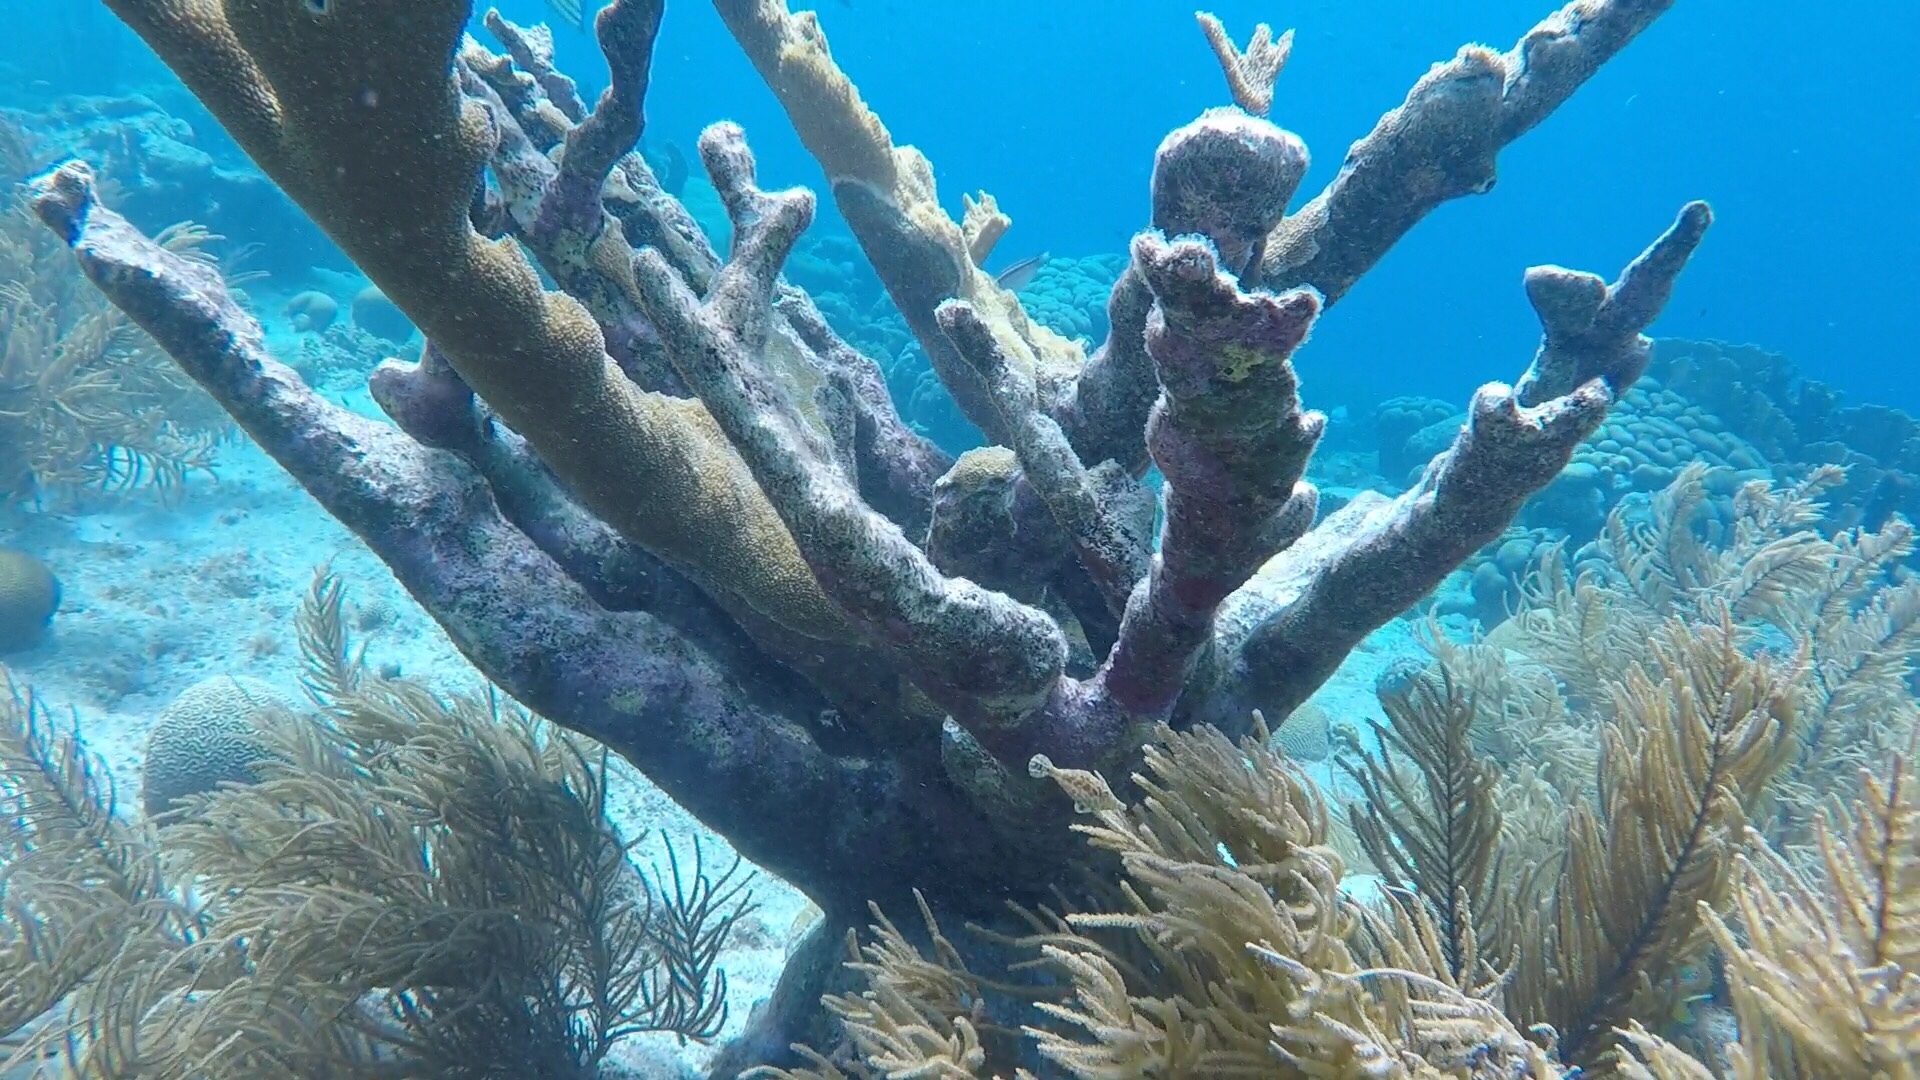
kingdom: Animalia
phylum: Cnidaria
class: Anthozoa
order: Scleractinia
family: Acroporidae
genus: Acropora
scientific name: Acropora palmata
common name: Elkhorn coral
